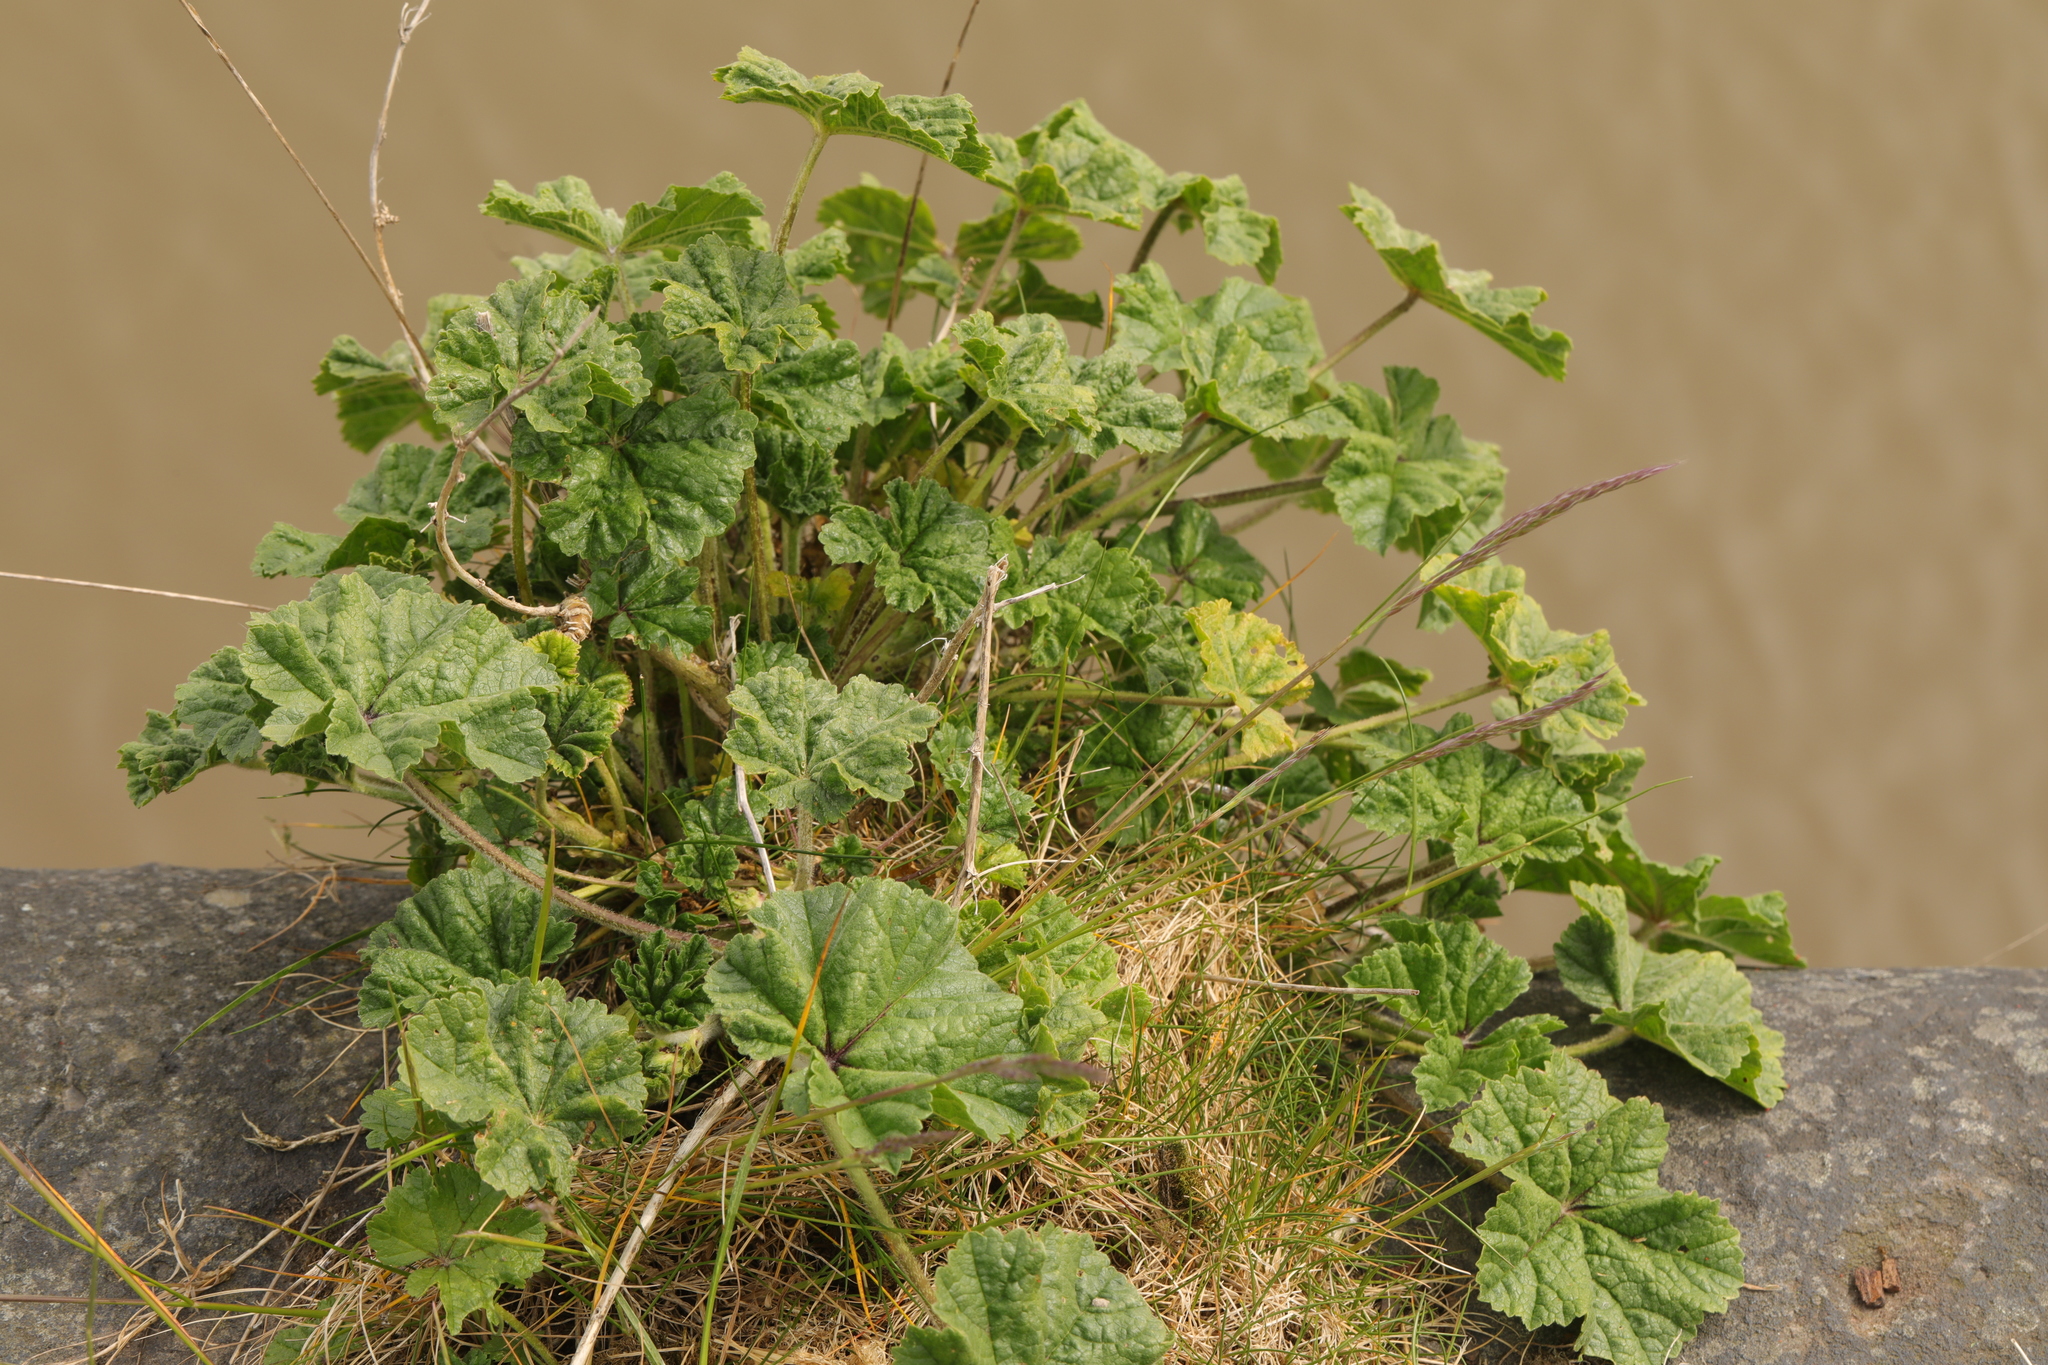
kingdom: Plantae
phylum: Tracheophyta
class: Magnoliopsida
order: Malvales
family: Malvaceae
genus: Malva
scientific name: Malva sylvestris
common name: Common mallow
